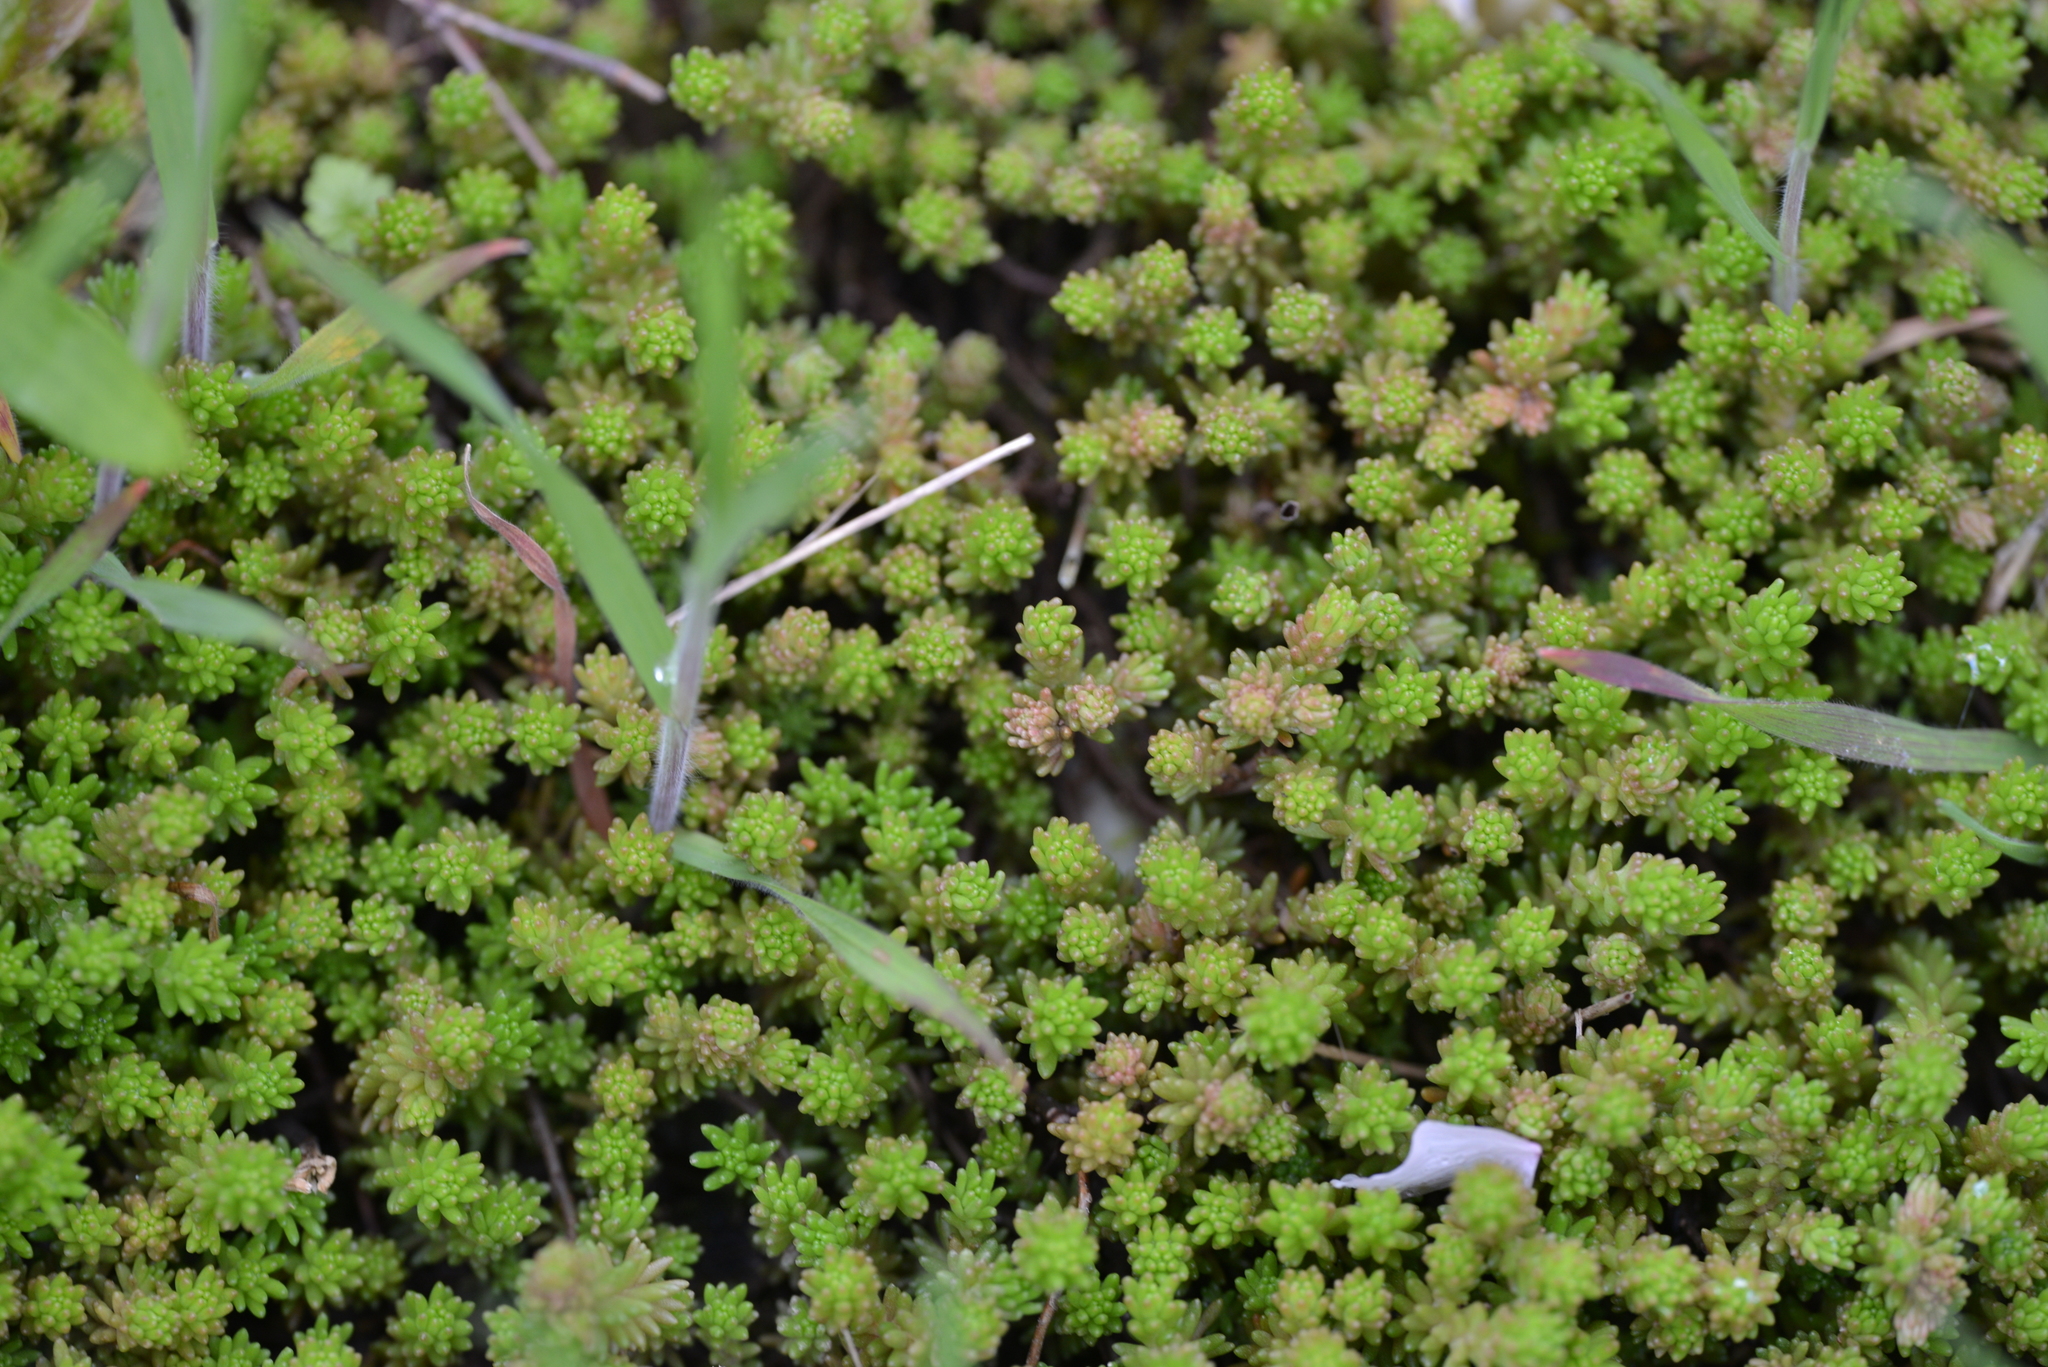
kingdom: Plantae
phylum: Tracheophyta
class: Magnoliopsida
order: Saxifragales
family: Crassulaceae
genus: Sedum
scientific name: Sedum sexangulare
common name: Tasteless stonecrop
